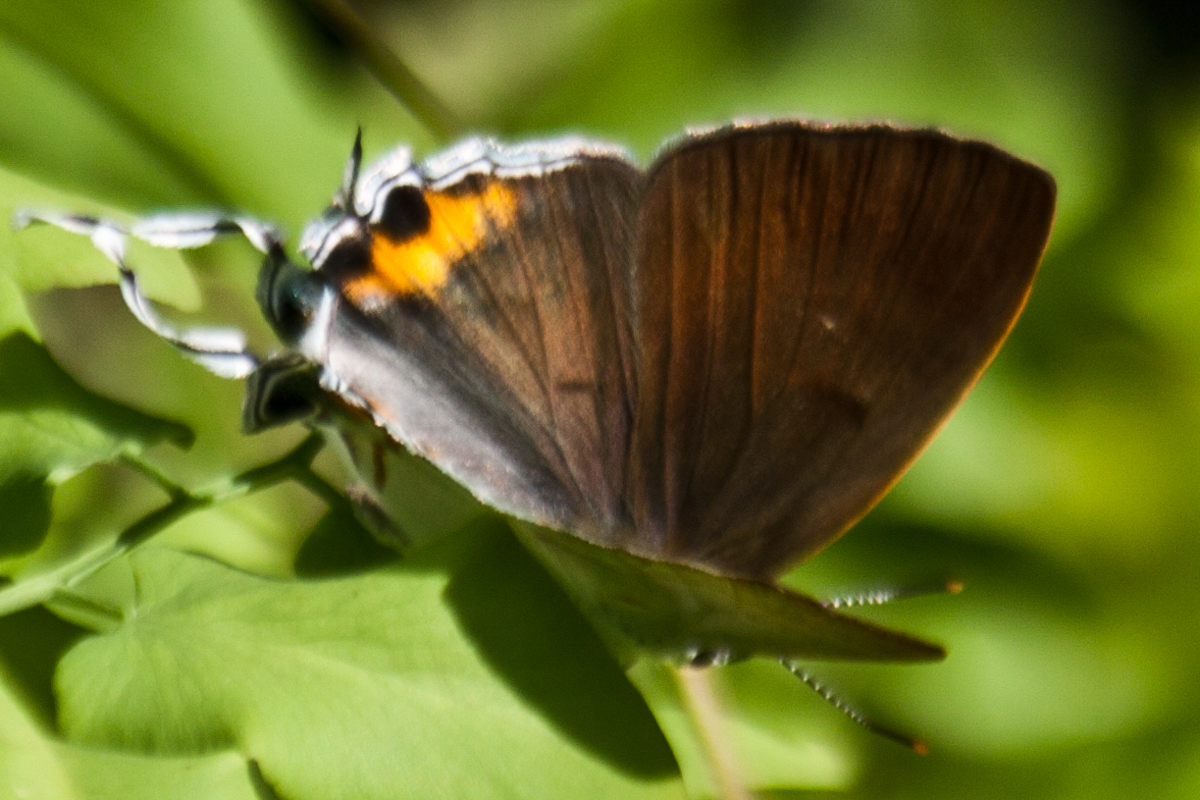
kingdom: Animalia
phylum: Arthropoda
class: Insecta
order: Lepidoptera
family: Lycaenidae
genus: Hypolycaena
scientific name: Hypolycaena thecloides
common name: Dark tit
